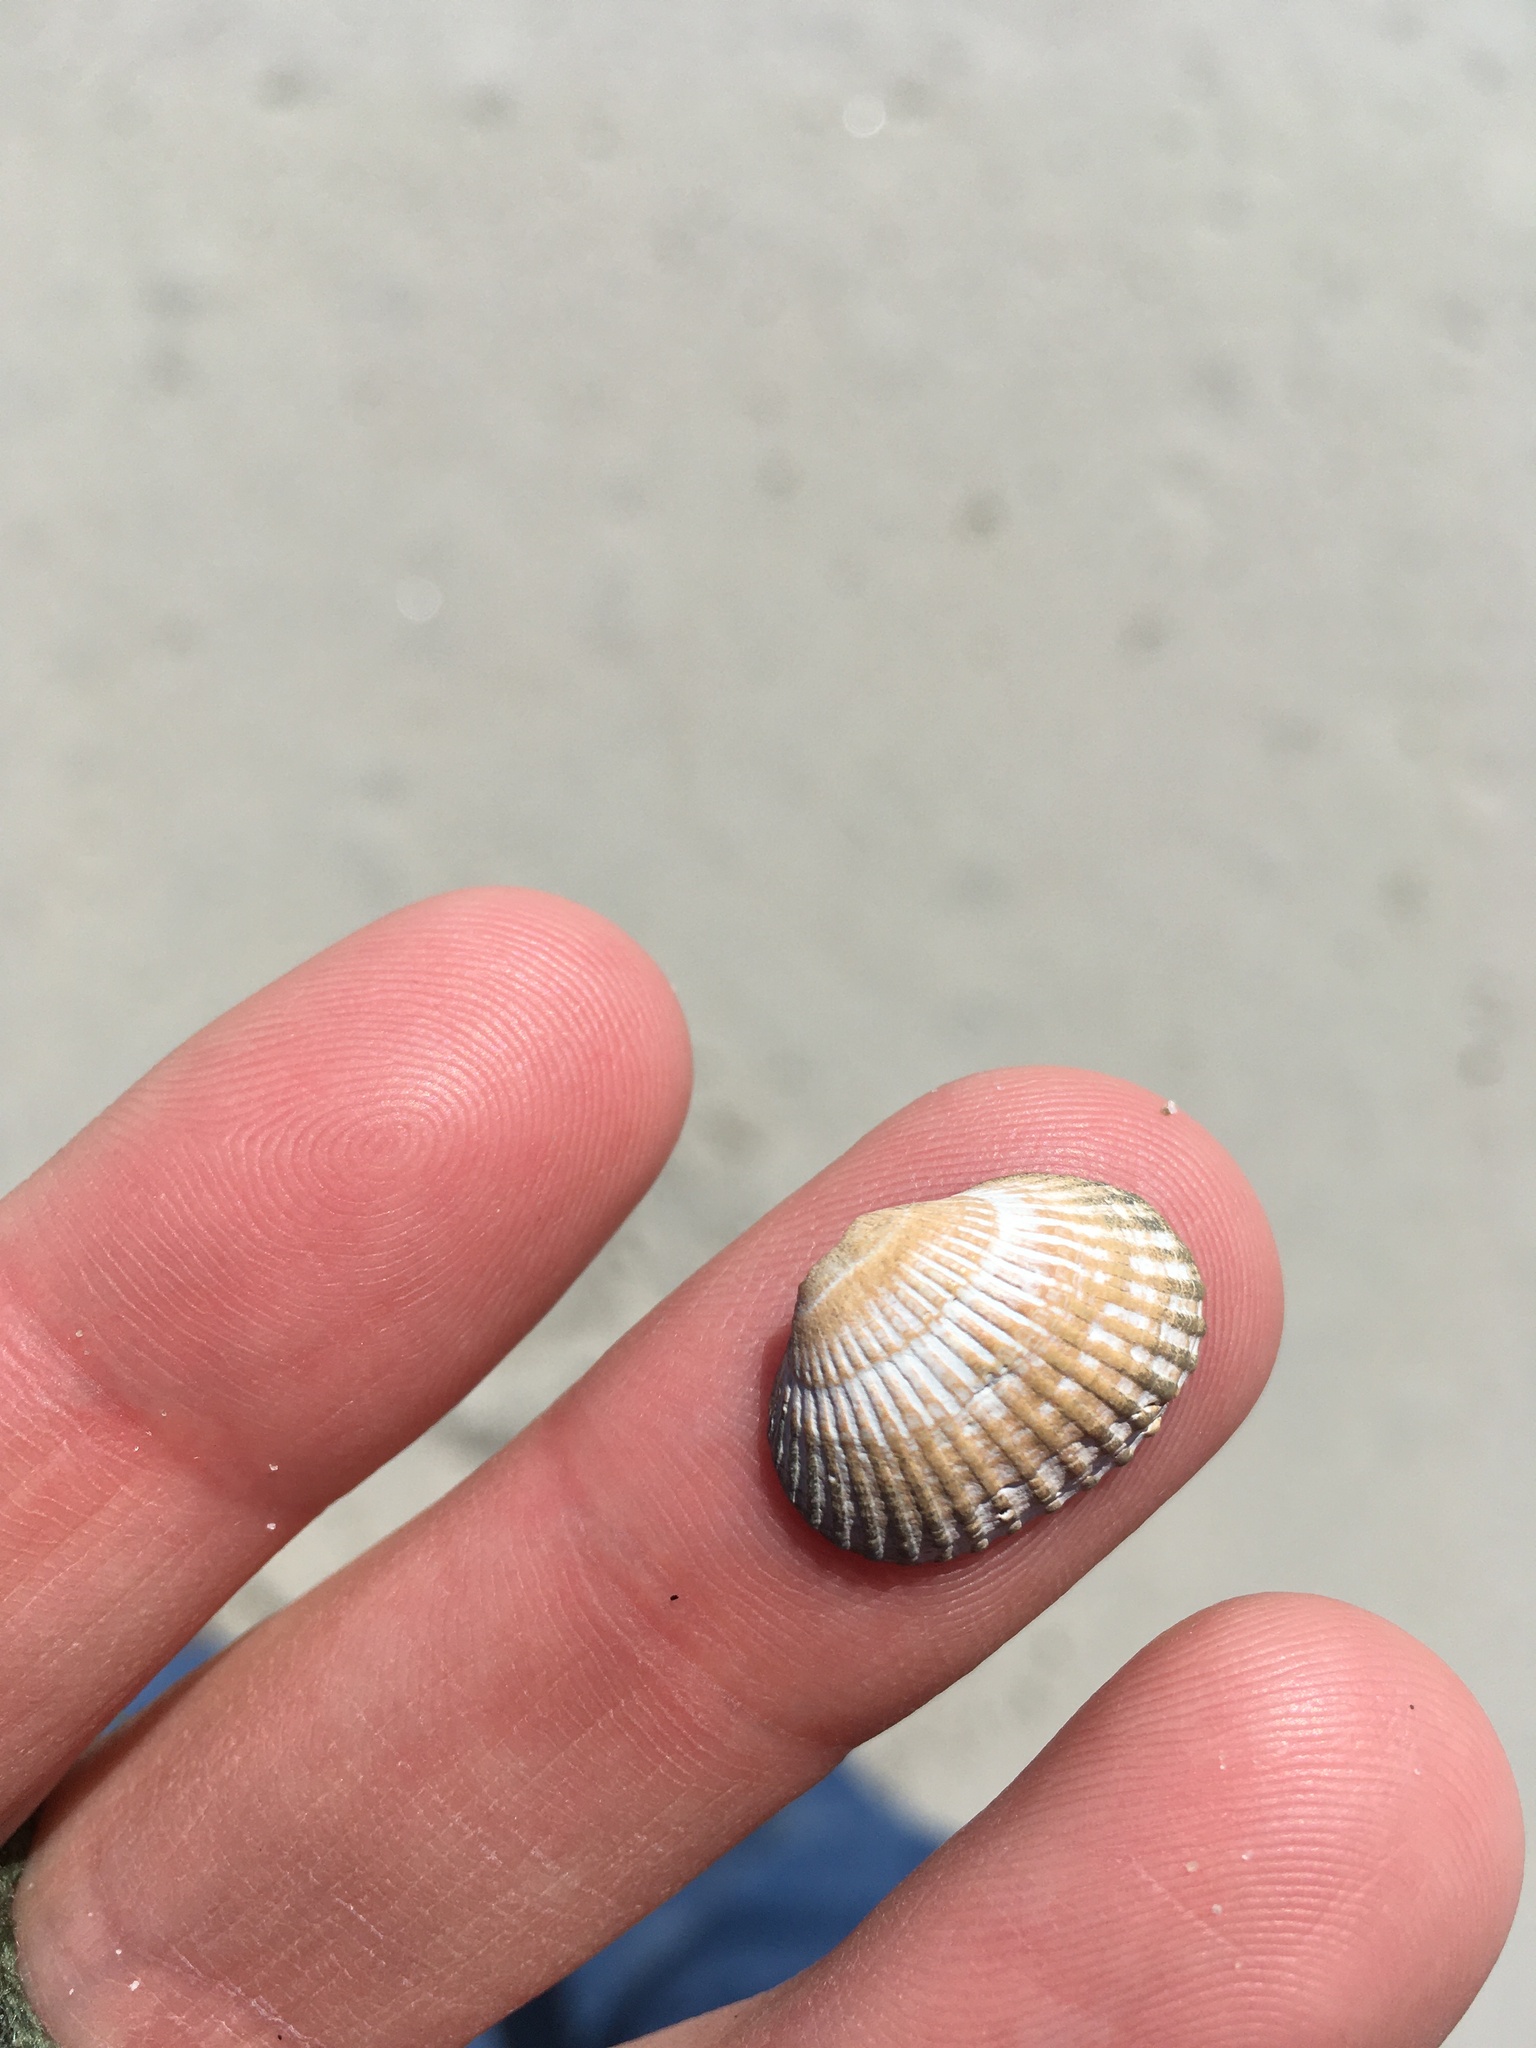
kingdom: Animalia
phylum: Mollusca
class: Bivalvia
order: Arcida
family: Arcidae
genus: Anadara
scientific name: Anadara transversa
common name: Transverse ark
